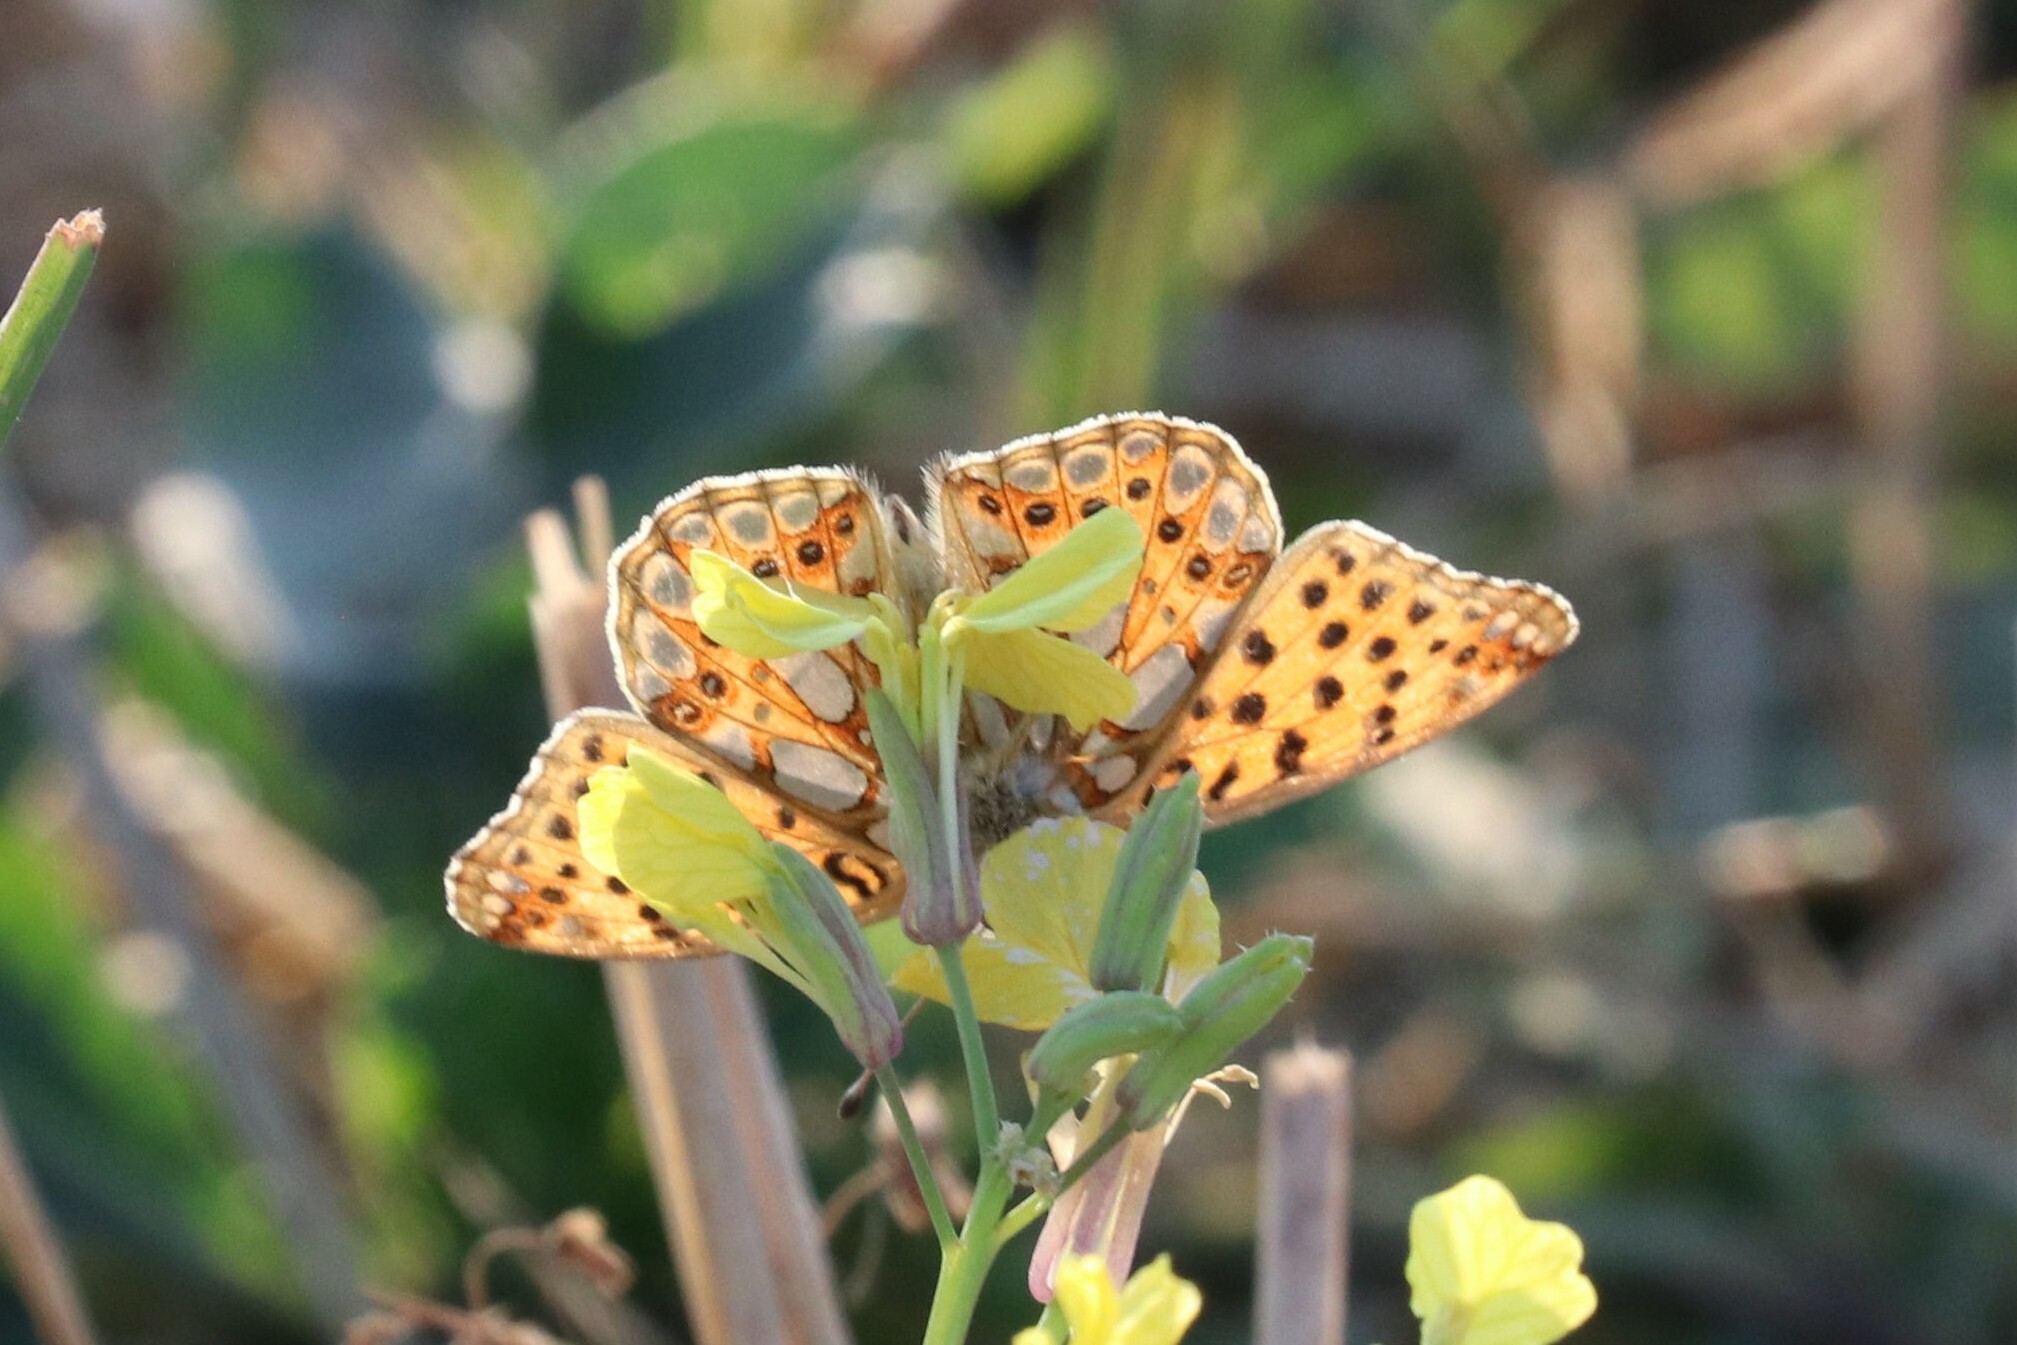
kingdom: Animalia
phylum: Arthropoda
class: Insecta
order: Lepidoptera
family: Nymphalidae
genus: Issoria
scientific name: Issoria lathonia
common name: Queen of spain fritillary
